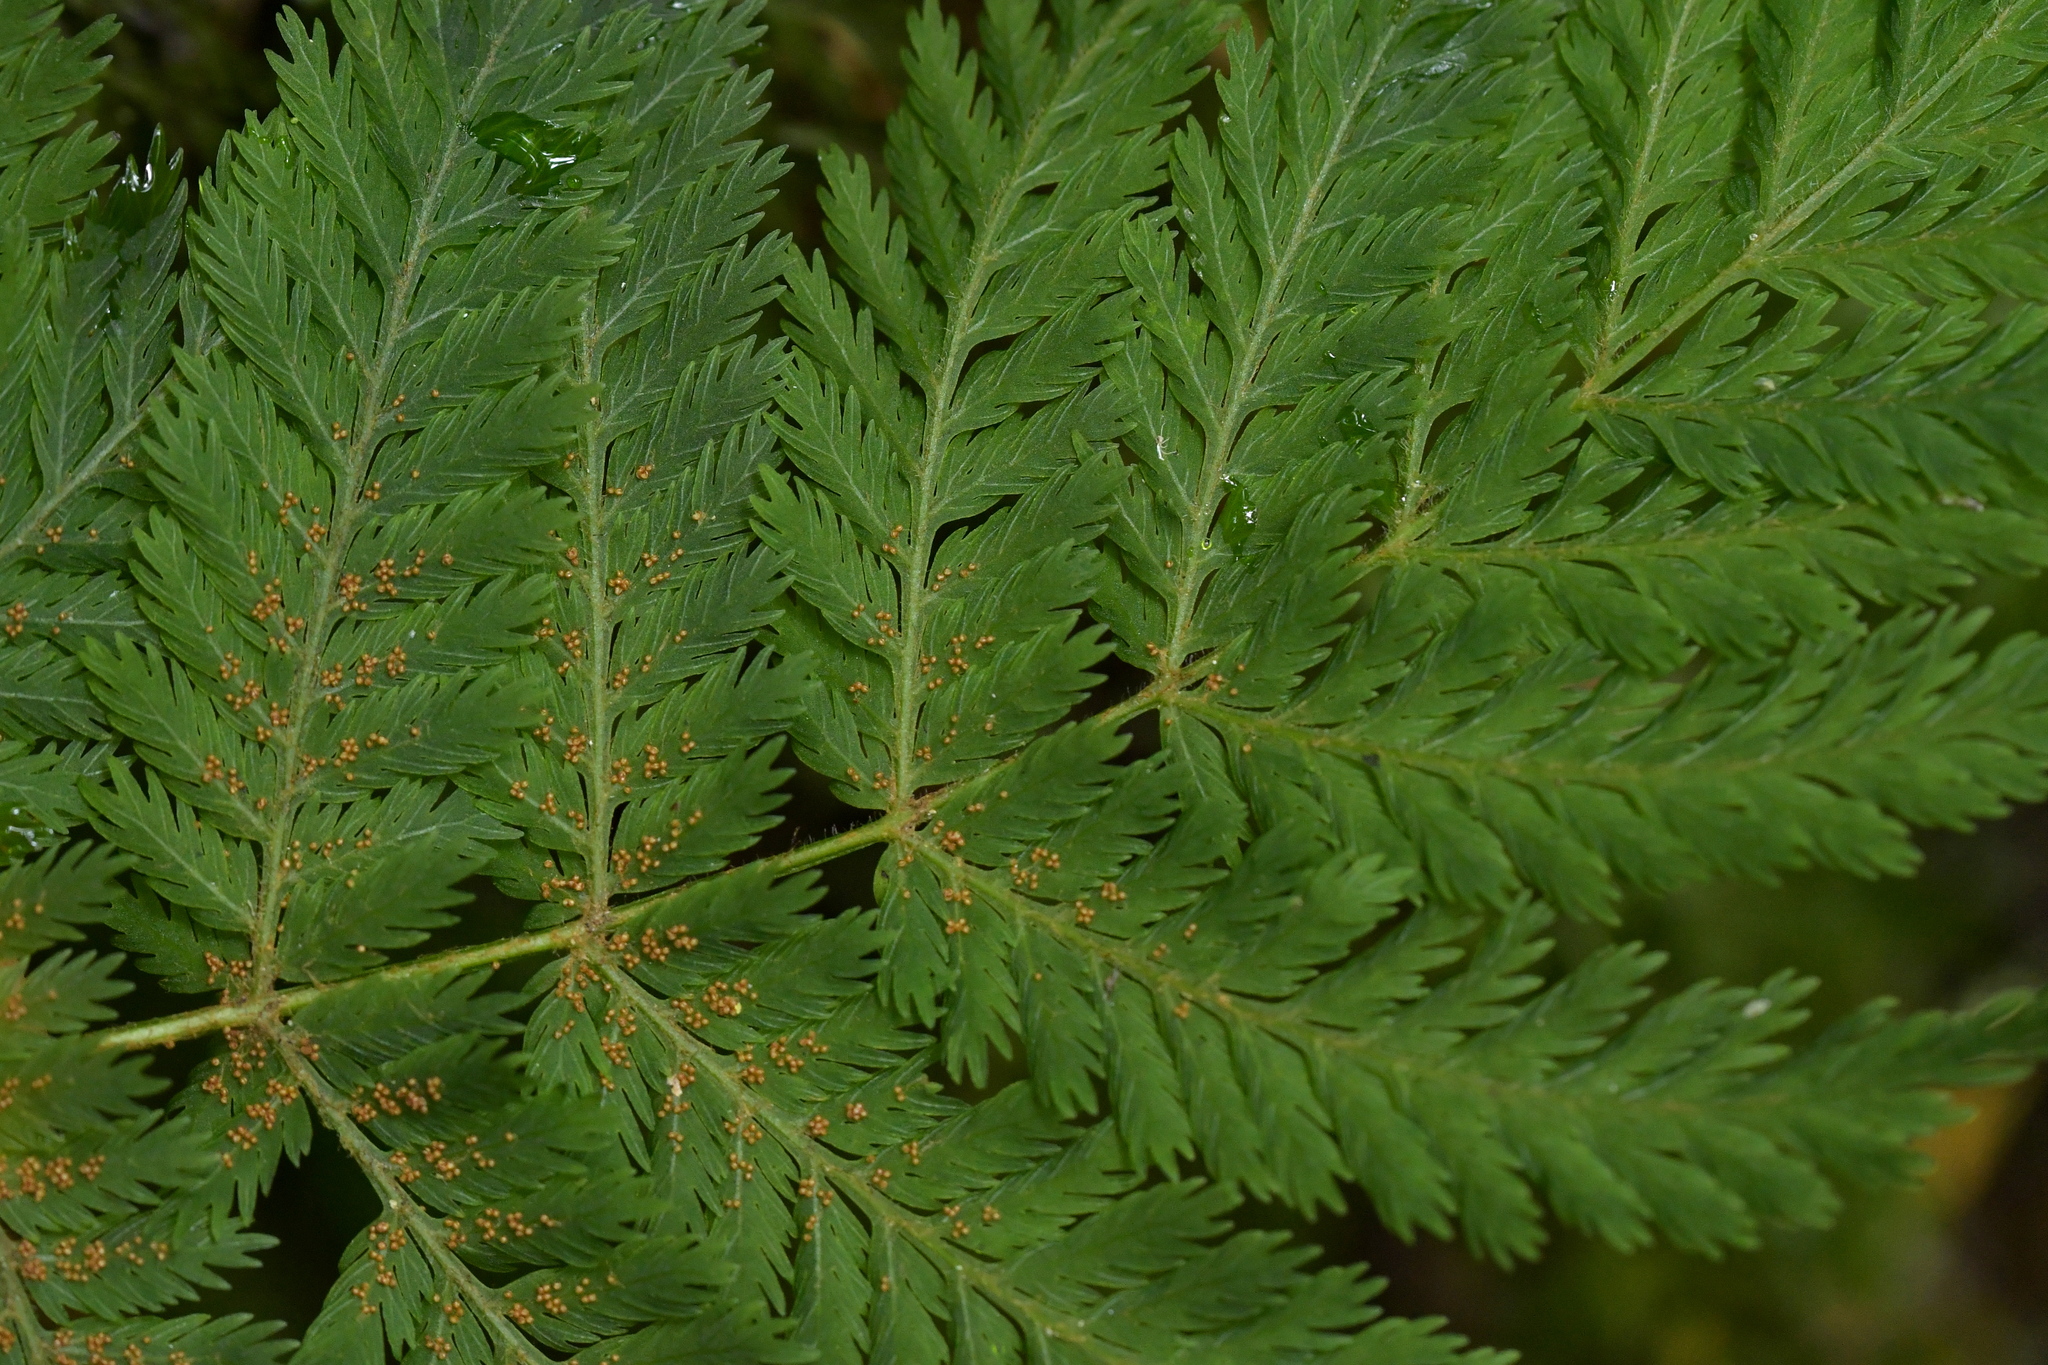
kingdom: Plantae
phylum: Tracheophyta
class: Polypodiopsida
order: Osmundales
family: Osmundaceae
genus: Leptopteris
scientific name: Leptopteris hymenophylloides
